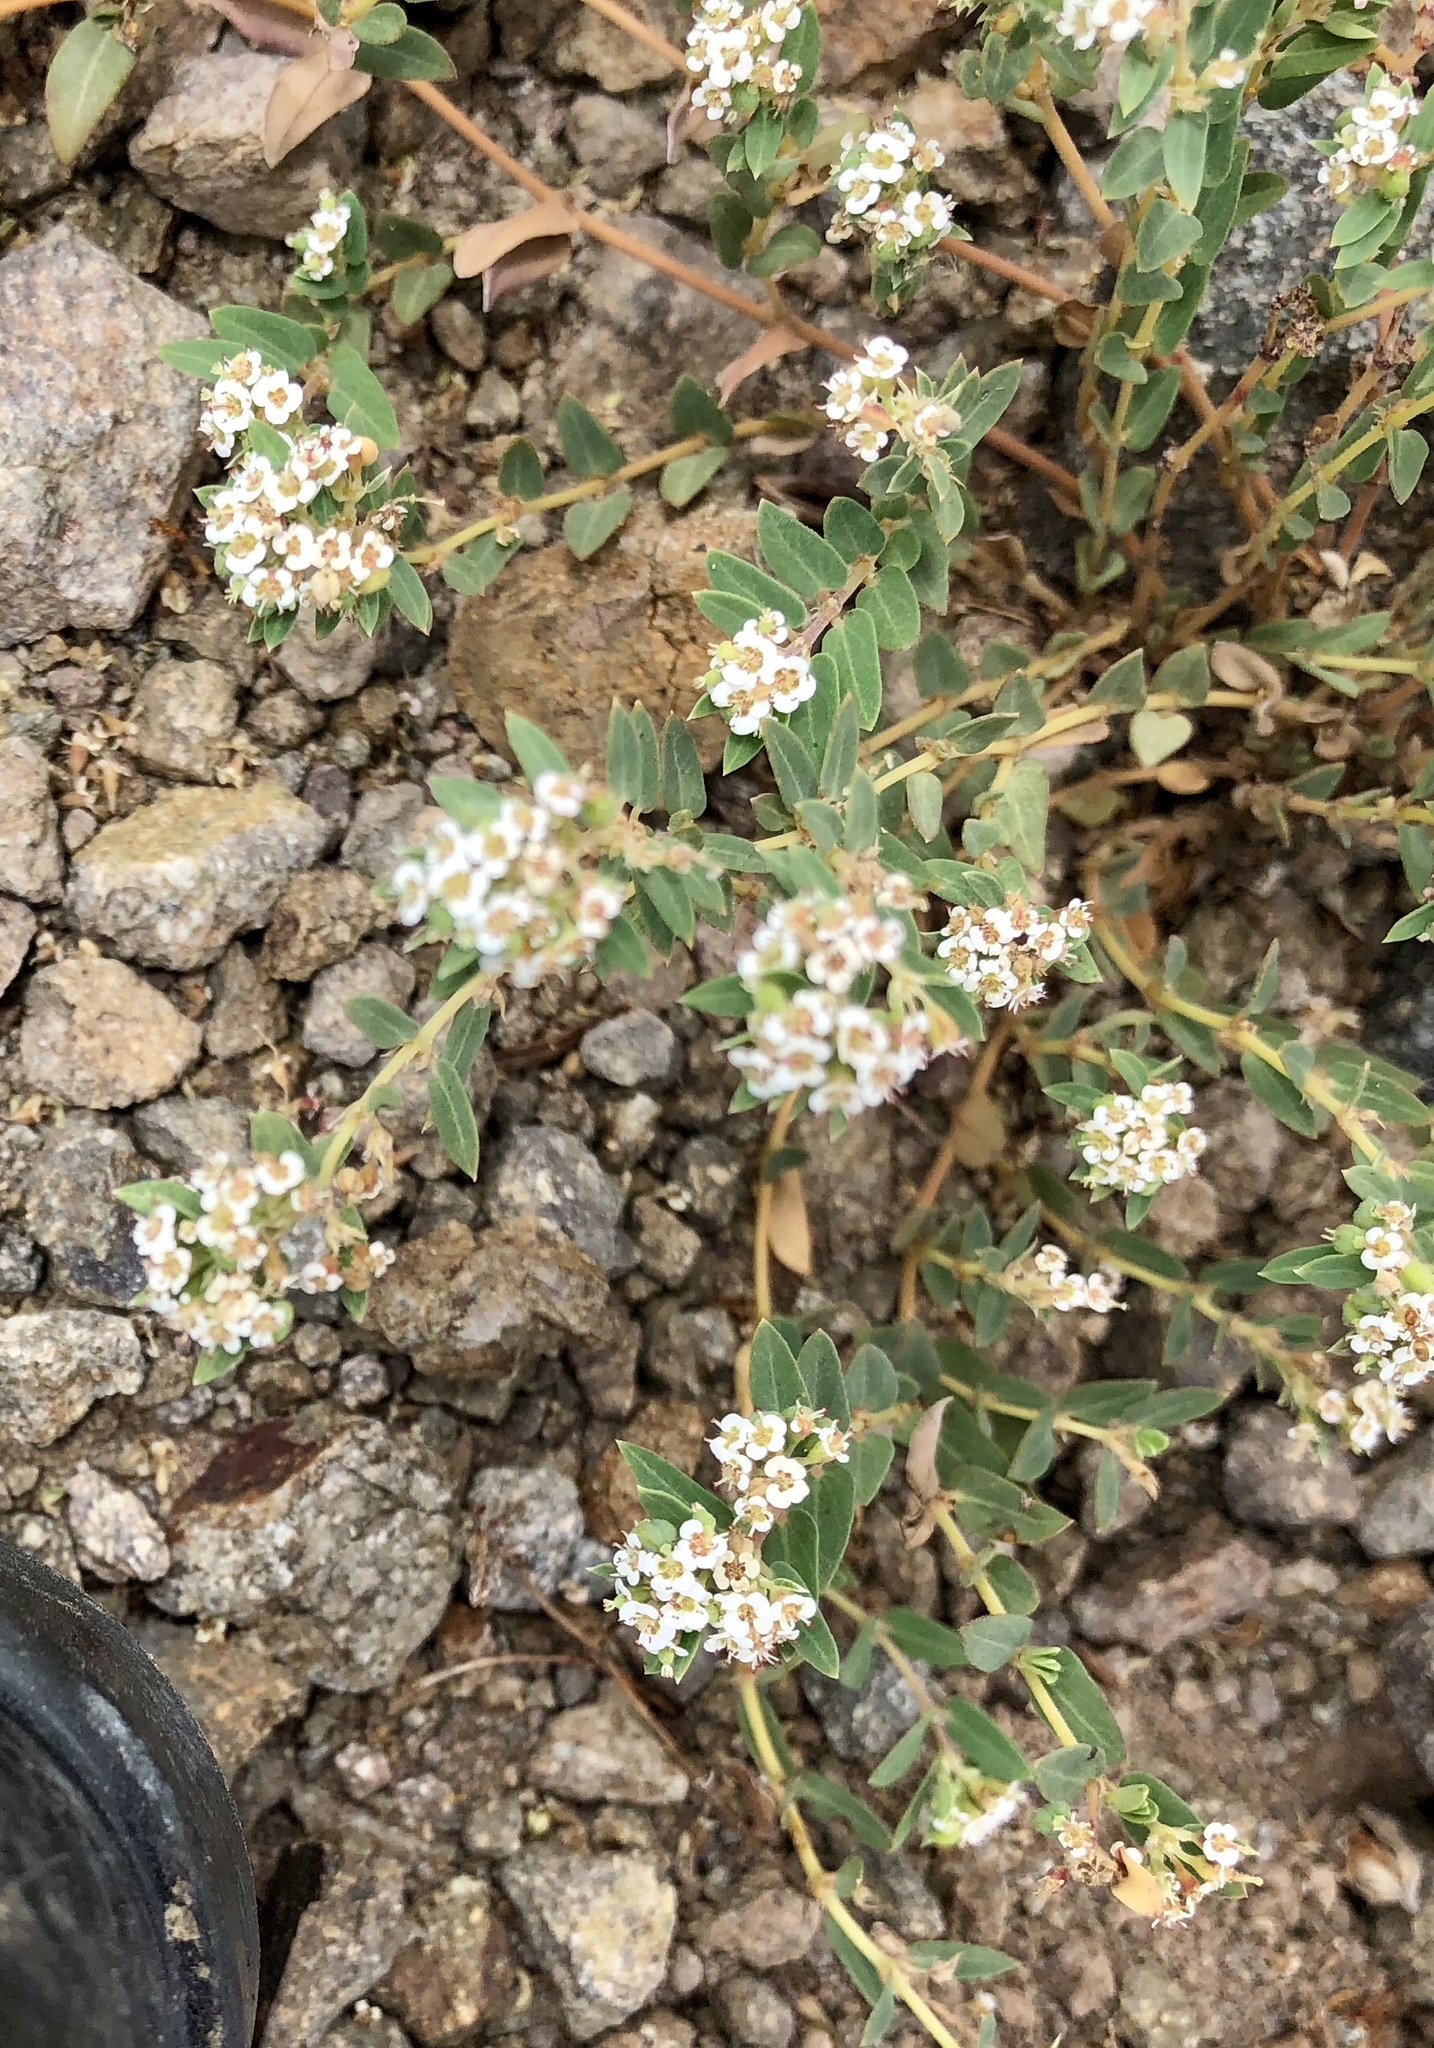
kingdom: Plantae
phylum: Tracheophyta
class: Magnoliopsida
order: Malpighiales
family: Euphorbiaceae
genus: Euphorbia
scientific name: Euphorbia capitellata
